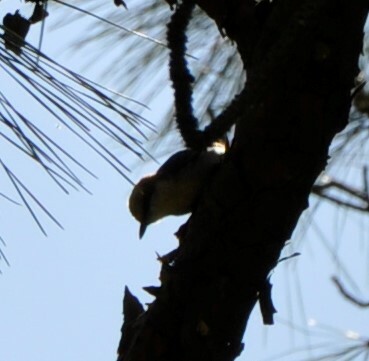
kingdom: Animalia
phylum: Chordata
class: Aves
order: Passeriformes
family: Sittidae
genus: Sitta
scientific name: Sitta pusilla
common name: Brown-headed nuthatch
